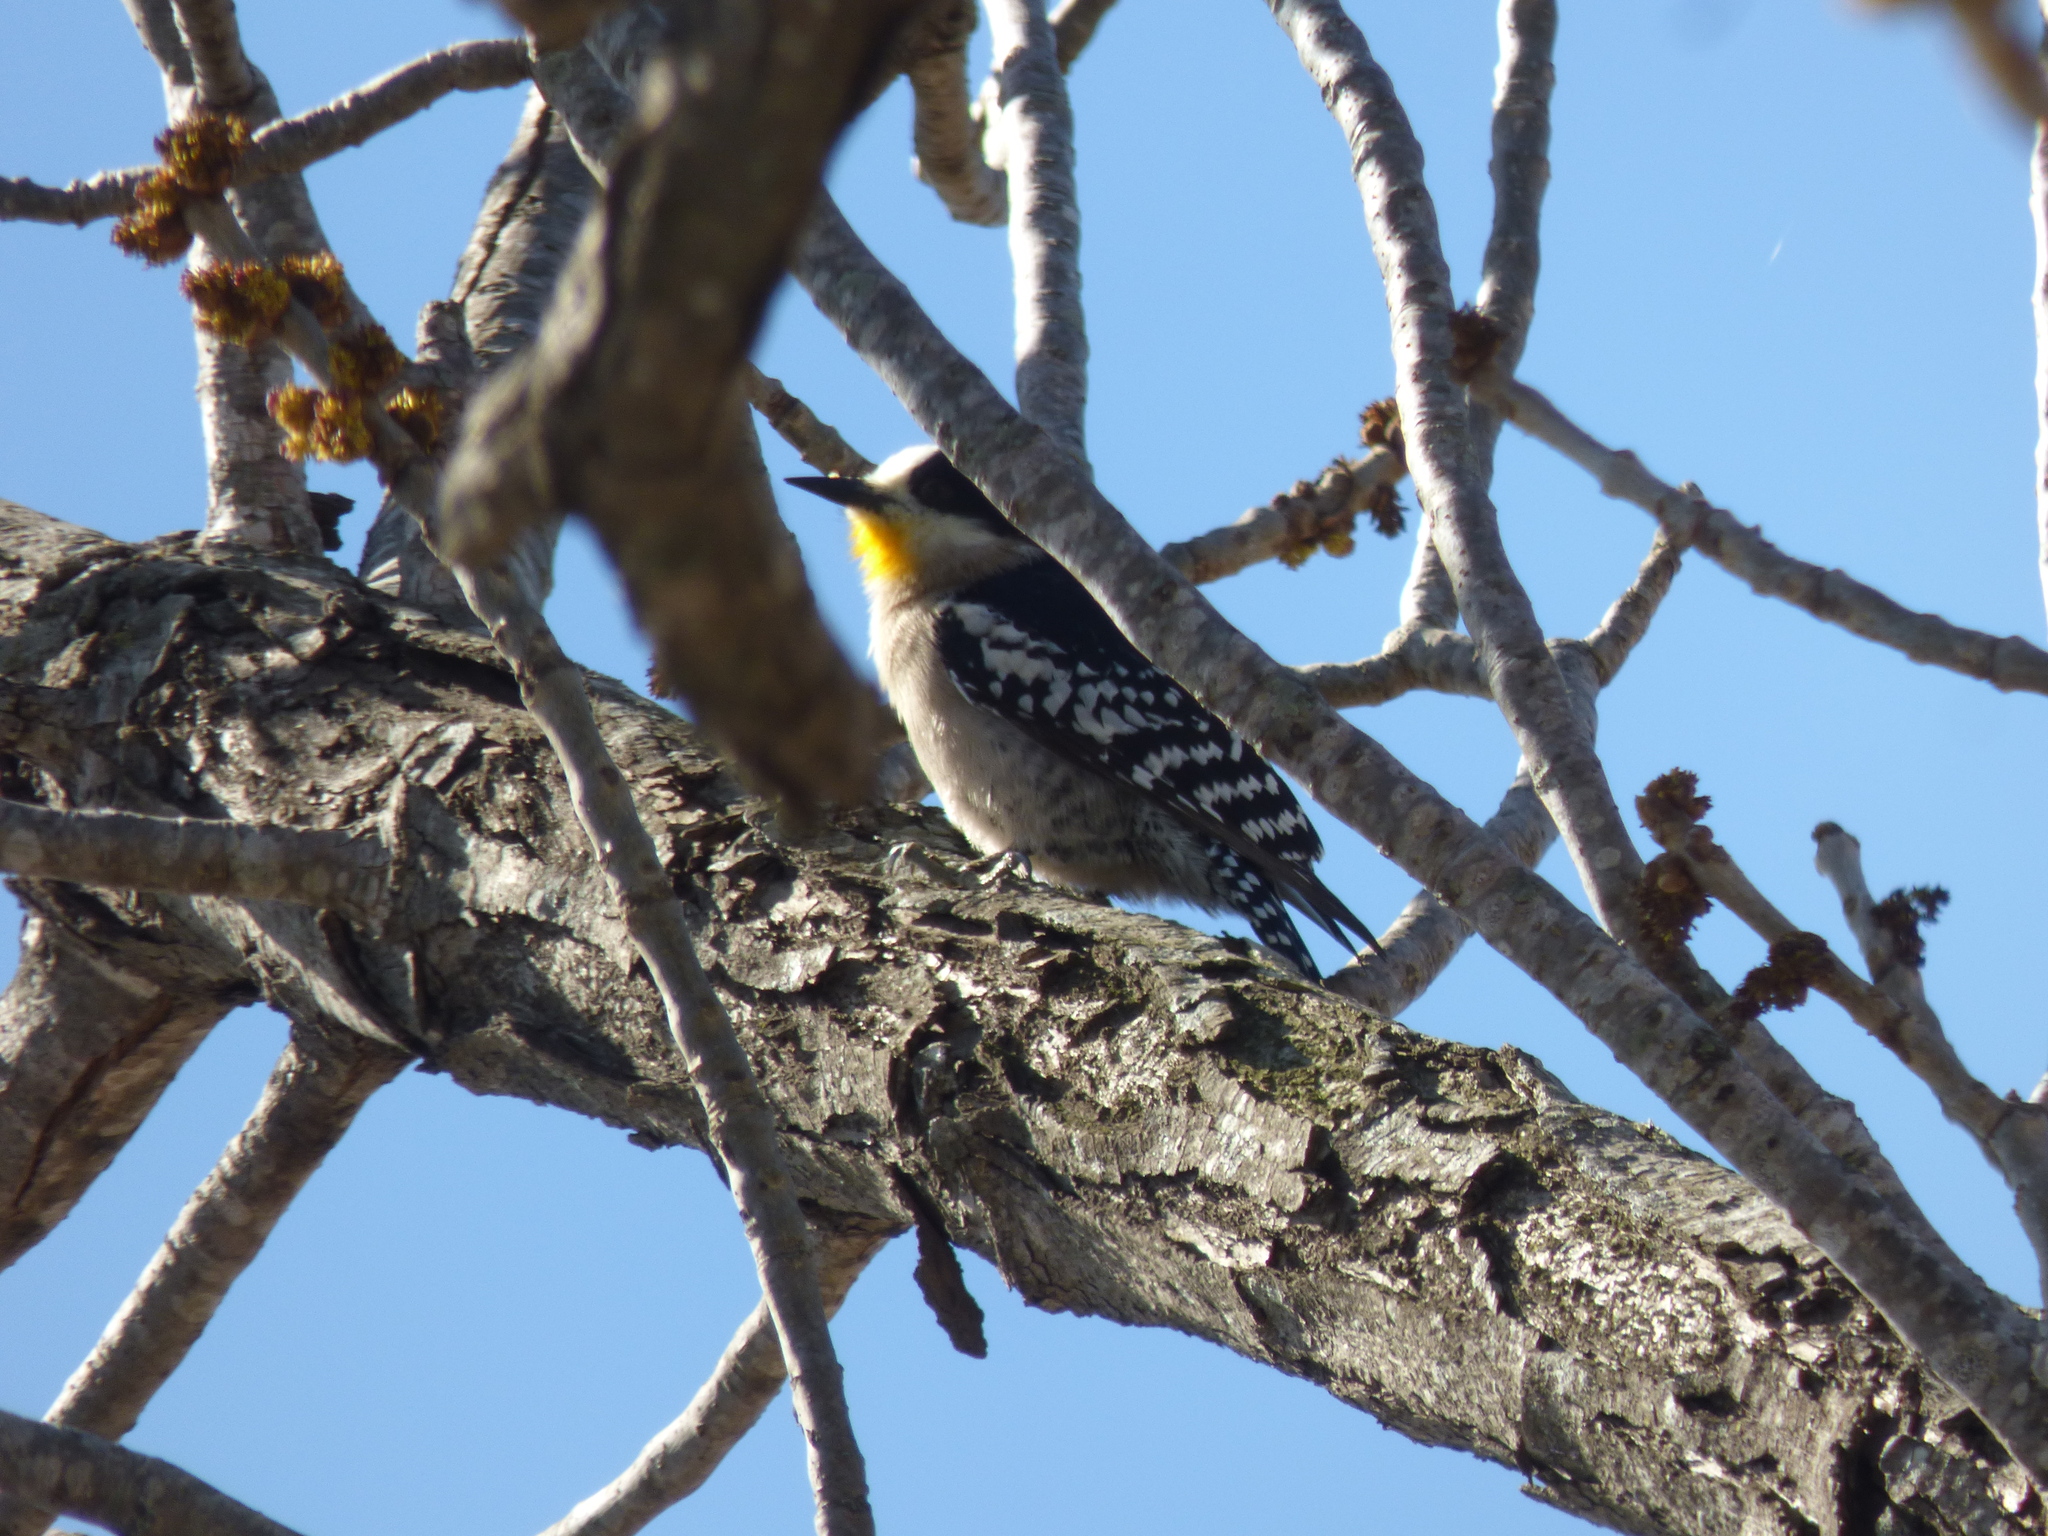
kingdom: Animalia
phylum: Chordata
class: Aves
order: Piciformes
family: Picidae
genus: Melanerpes
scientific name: Melanerpes cactorum
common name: White-fronted woodpecker
